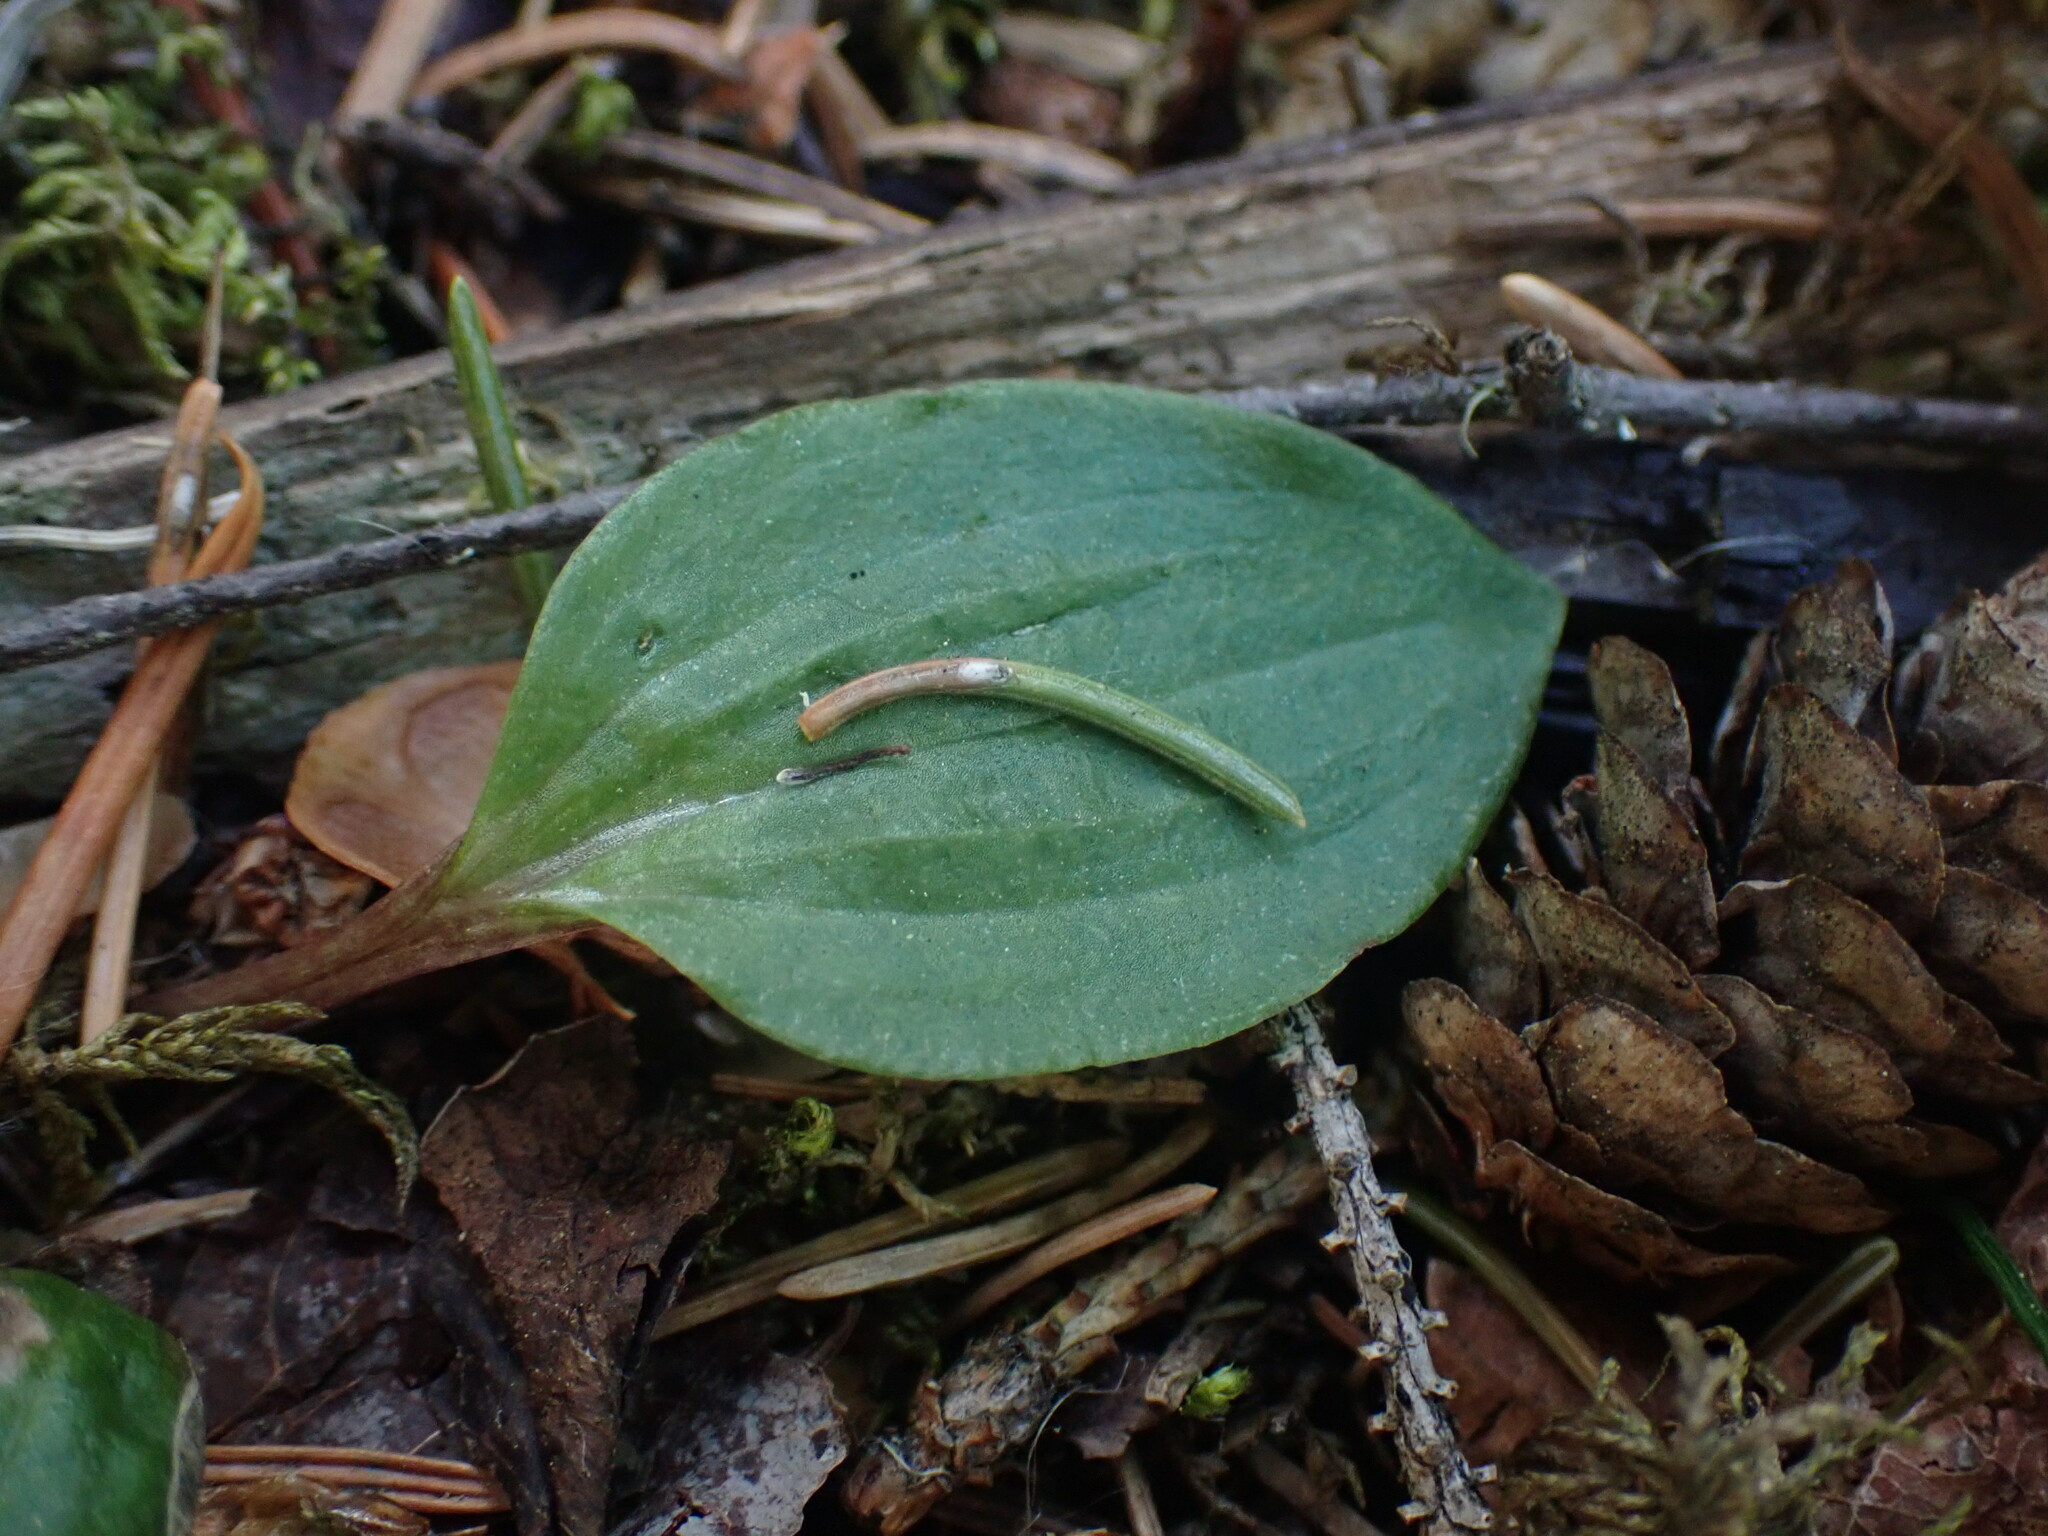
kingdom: Plantae
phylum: Tracheophyta
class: Liliopsida
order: Asparagales
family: Orchidaceae
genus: Calypso
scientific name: Calypso bulbosa
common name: Calypso
